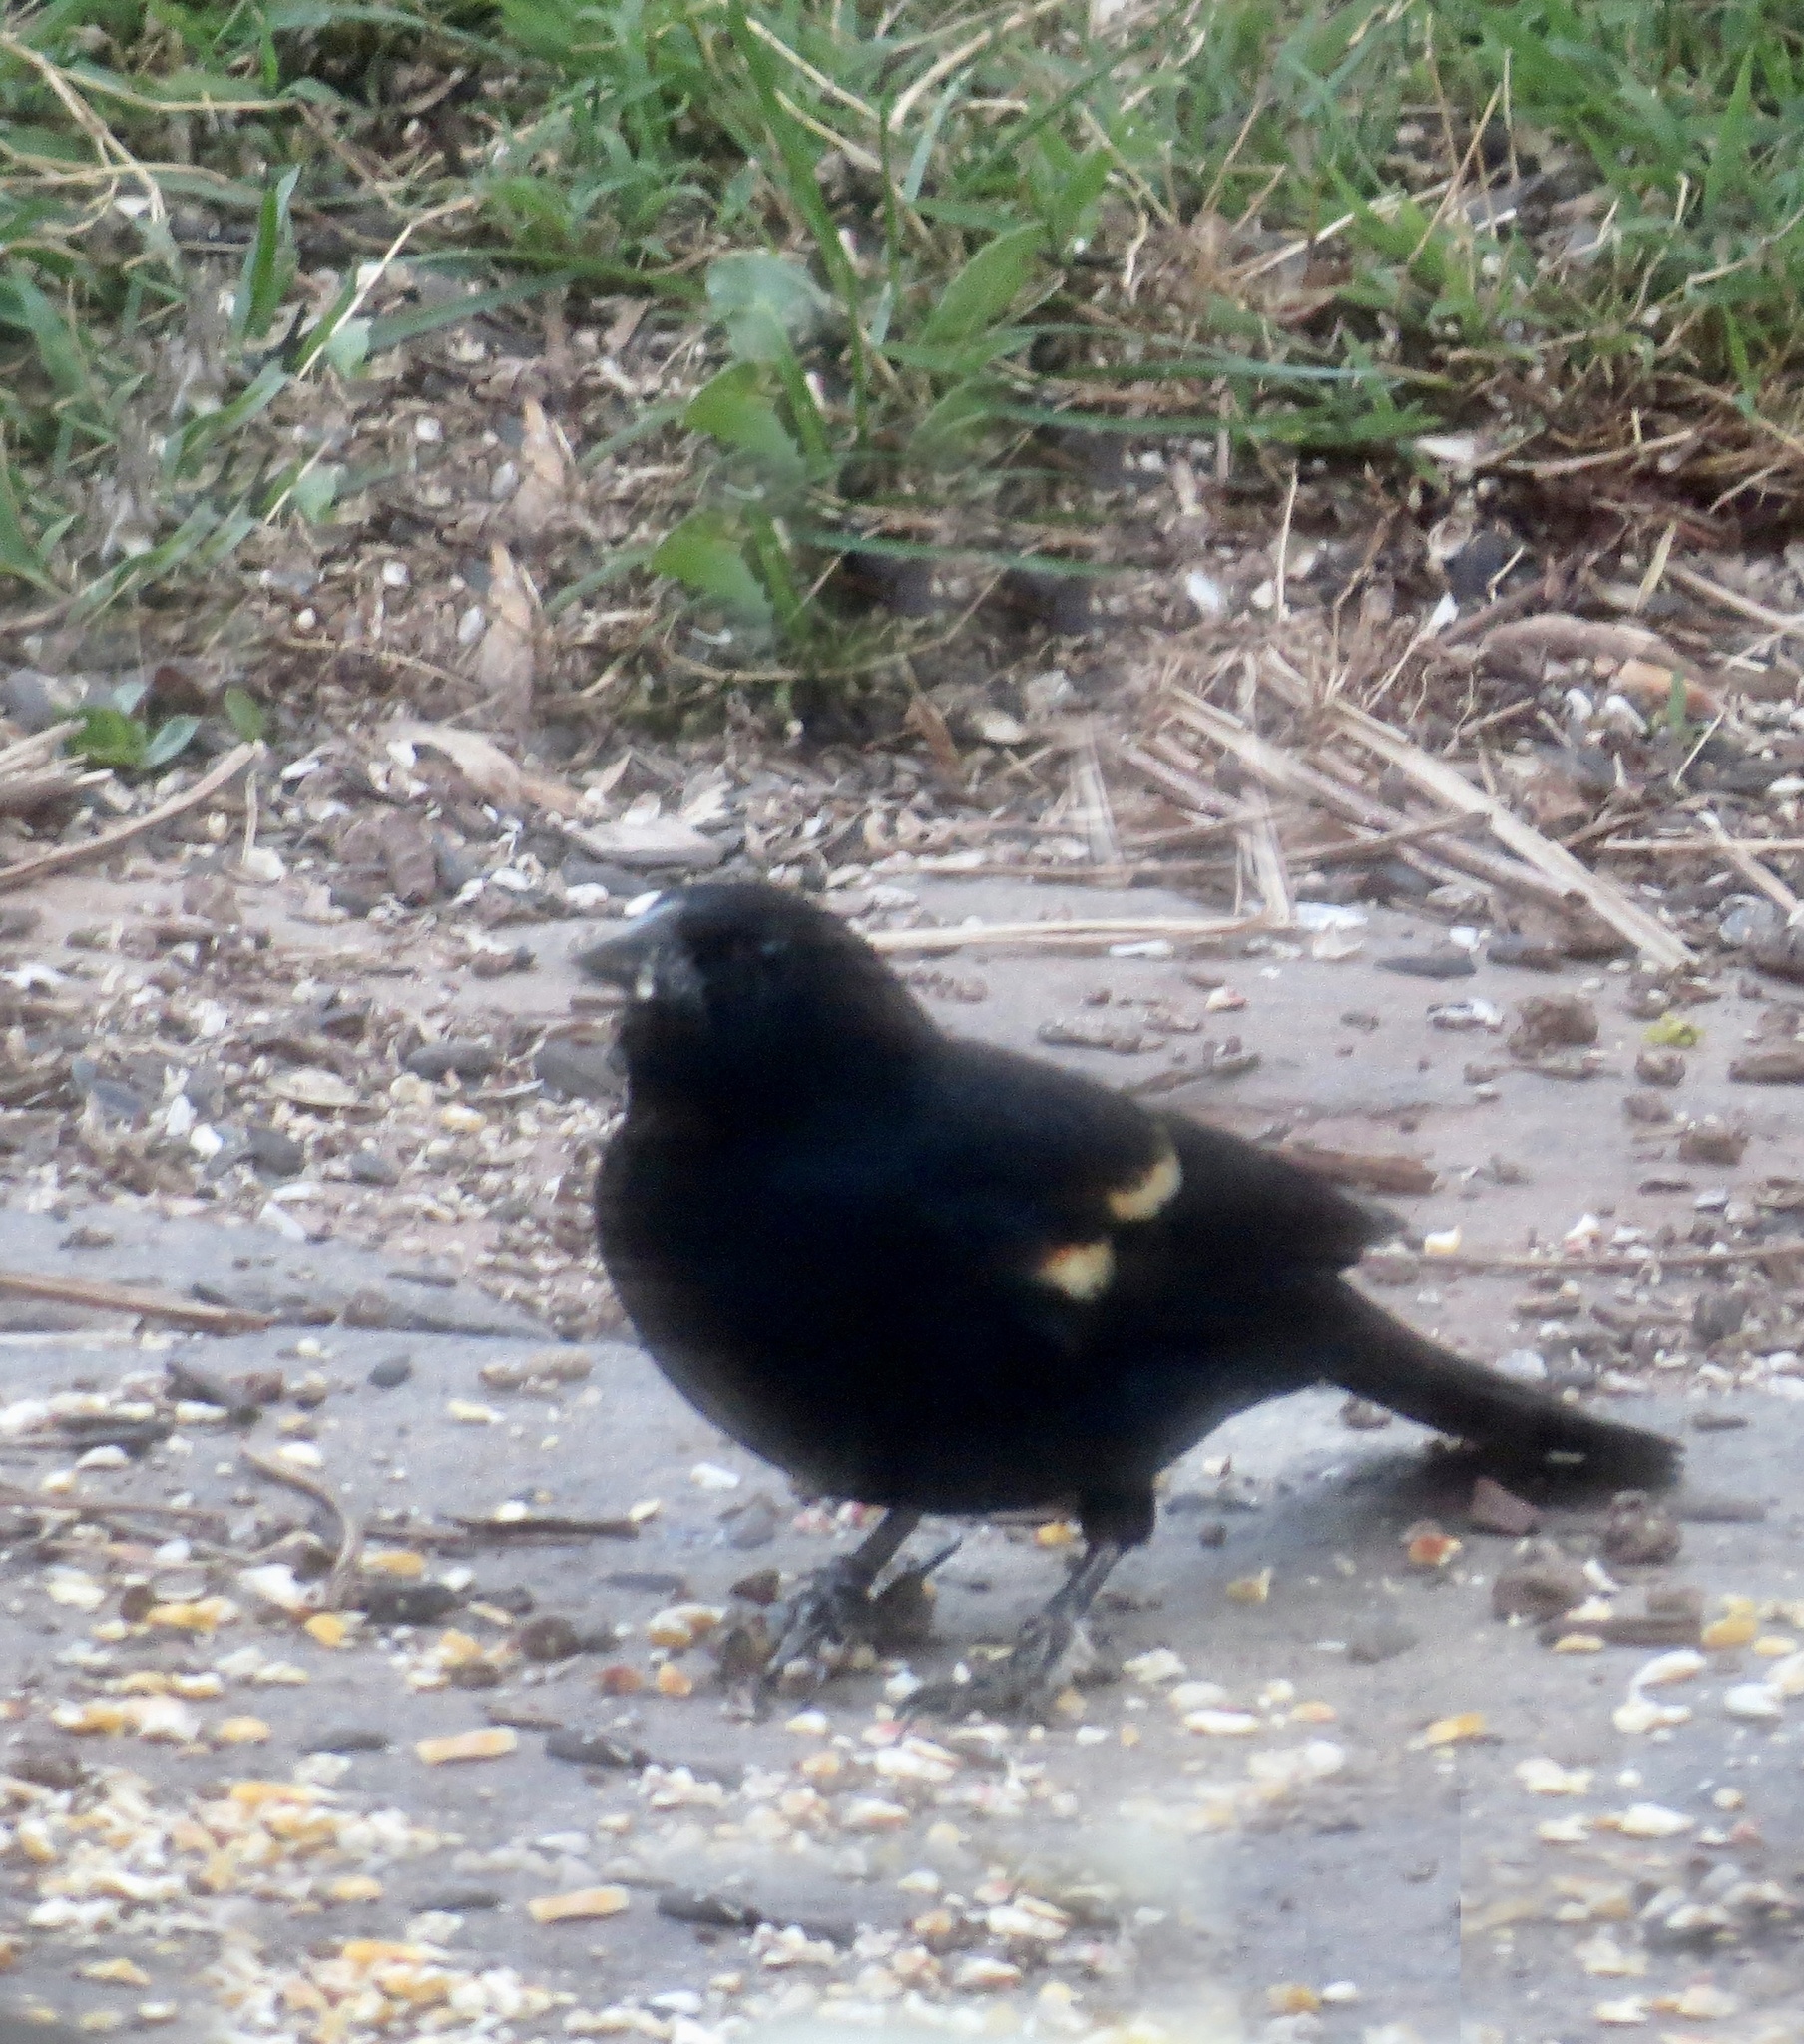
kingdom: Animalia
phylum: Chordata
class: Aves
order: Passeriformes
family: Icteridae
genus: Agelaius
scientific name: Agelaius phoeniceus
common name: Red-winged blackbird
